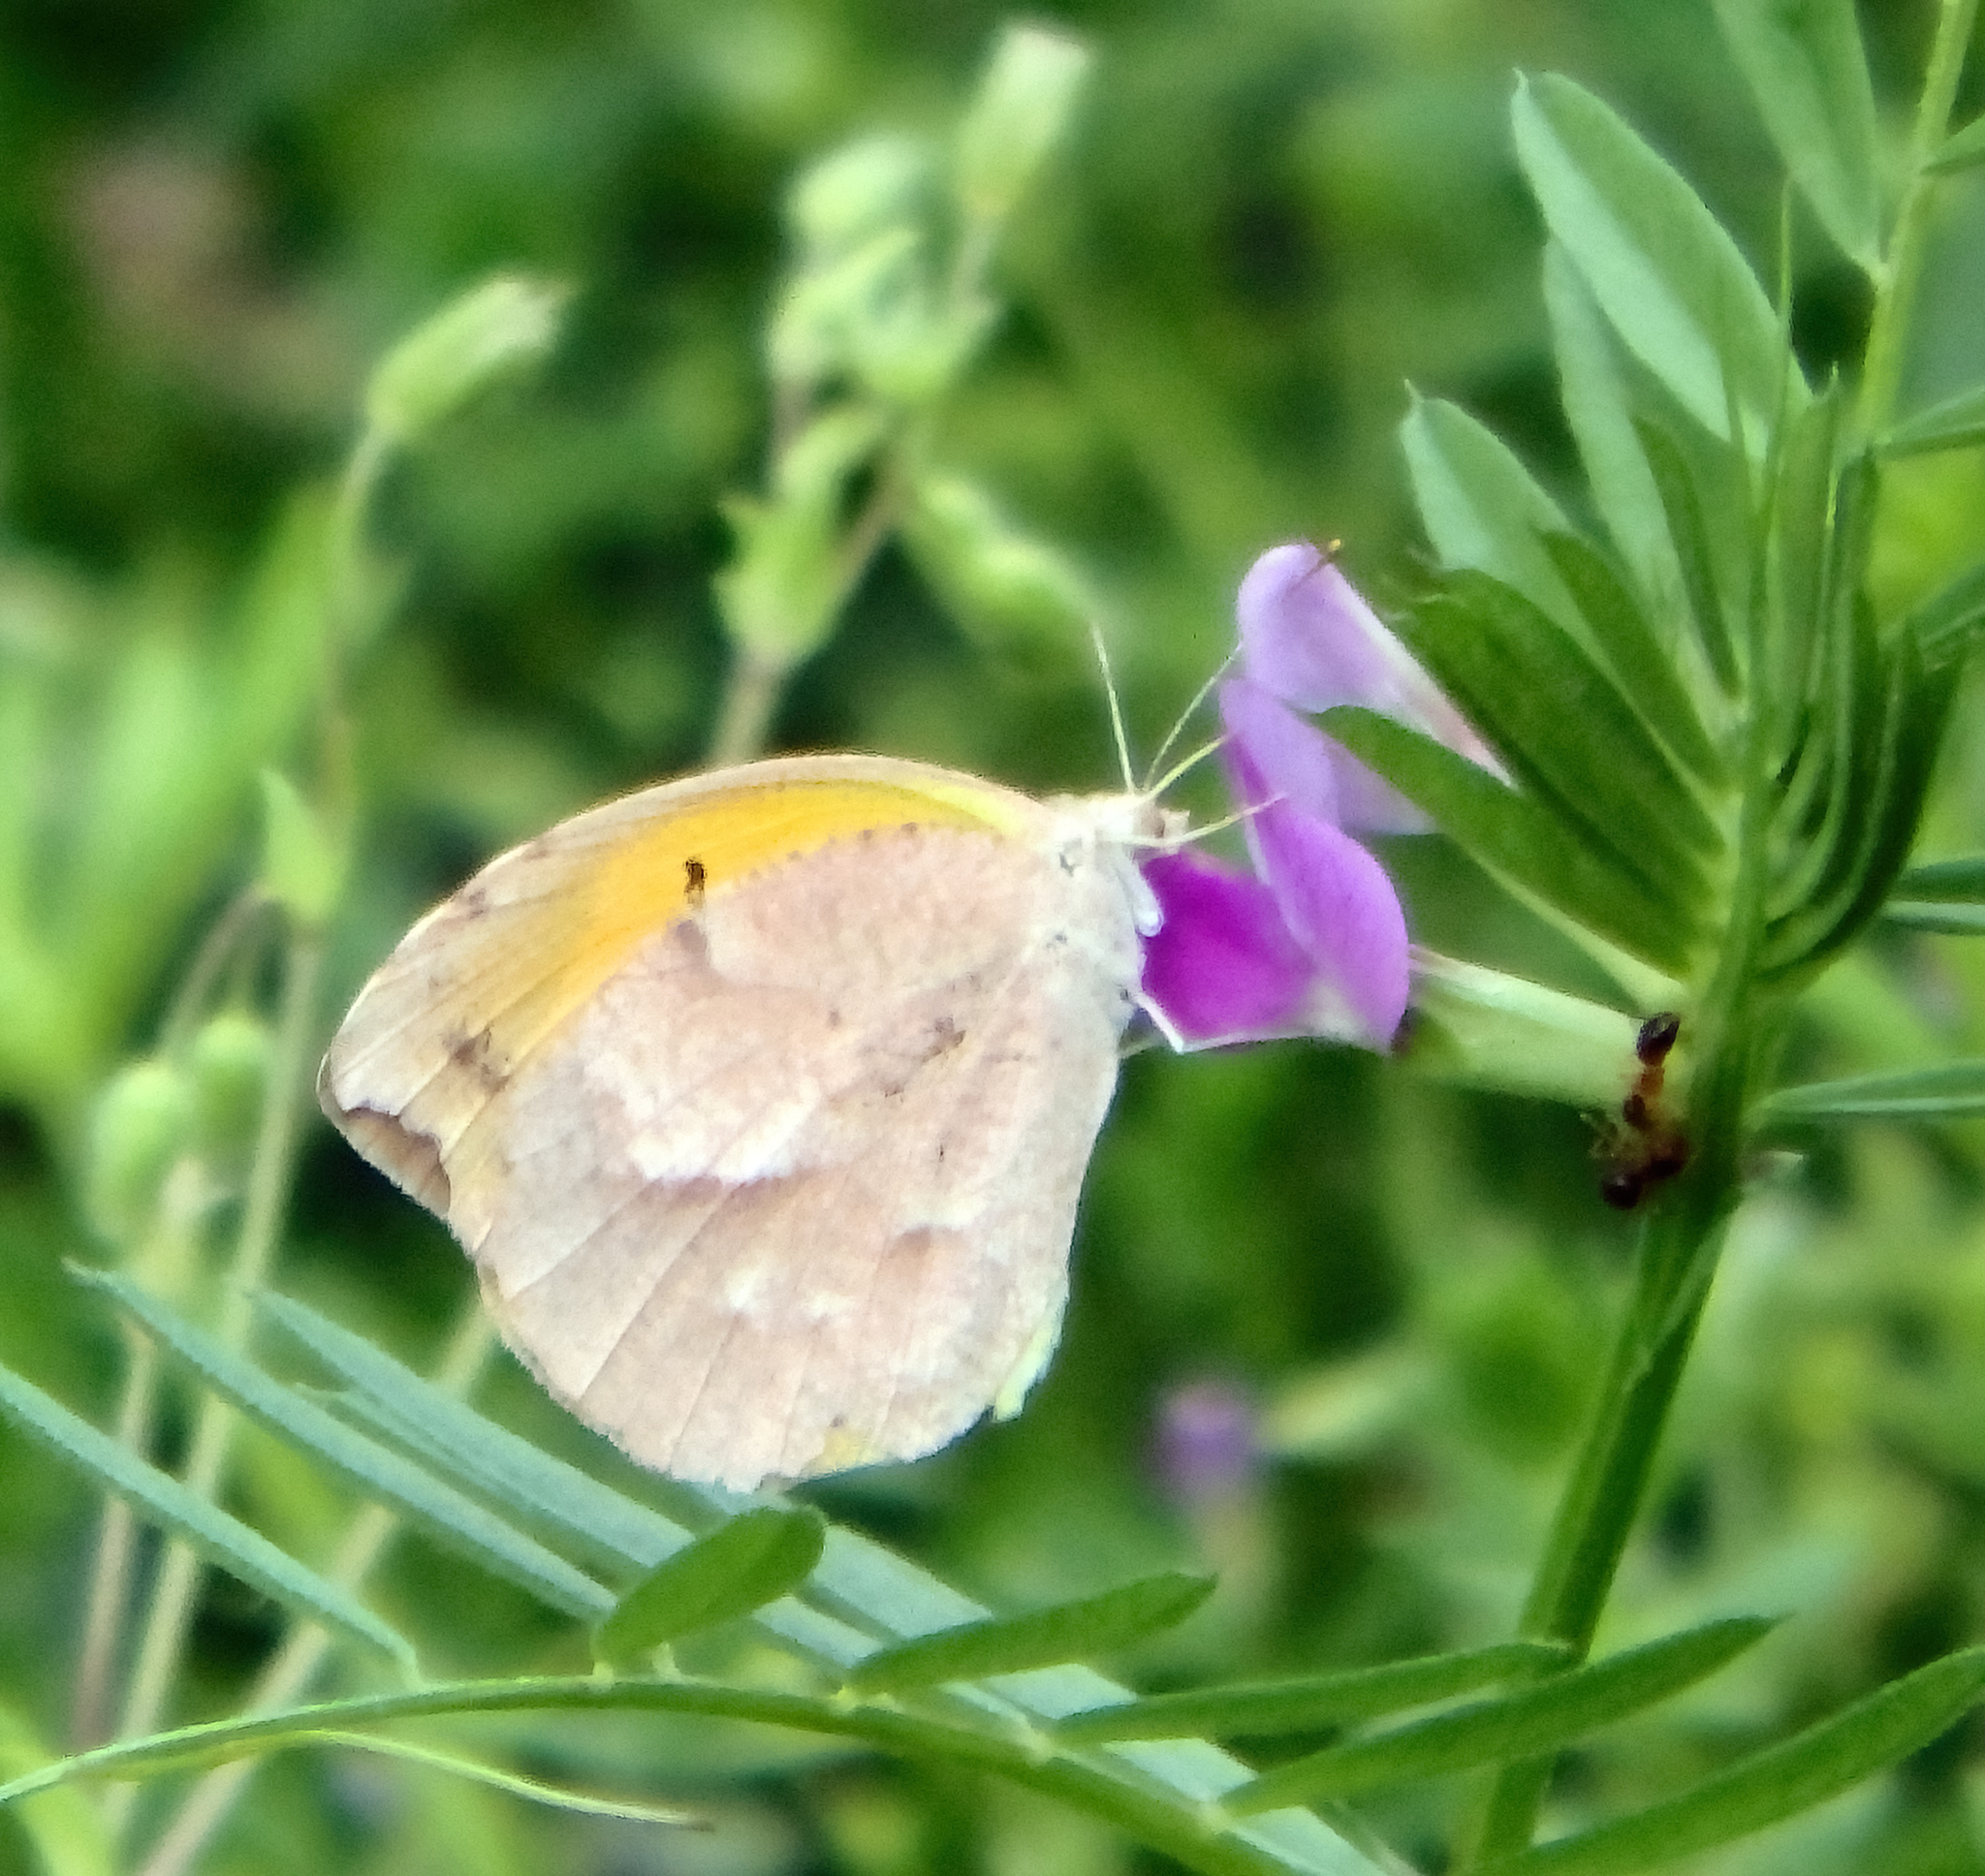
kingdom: Animalia
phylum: Arthropoda
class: Insecta
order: Lepidoptera
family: Pieridae
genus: Abaeis
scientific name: Abaeis nicippe
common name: Sleepy orange
